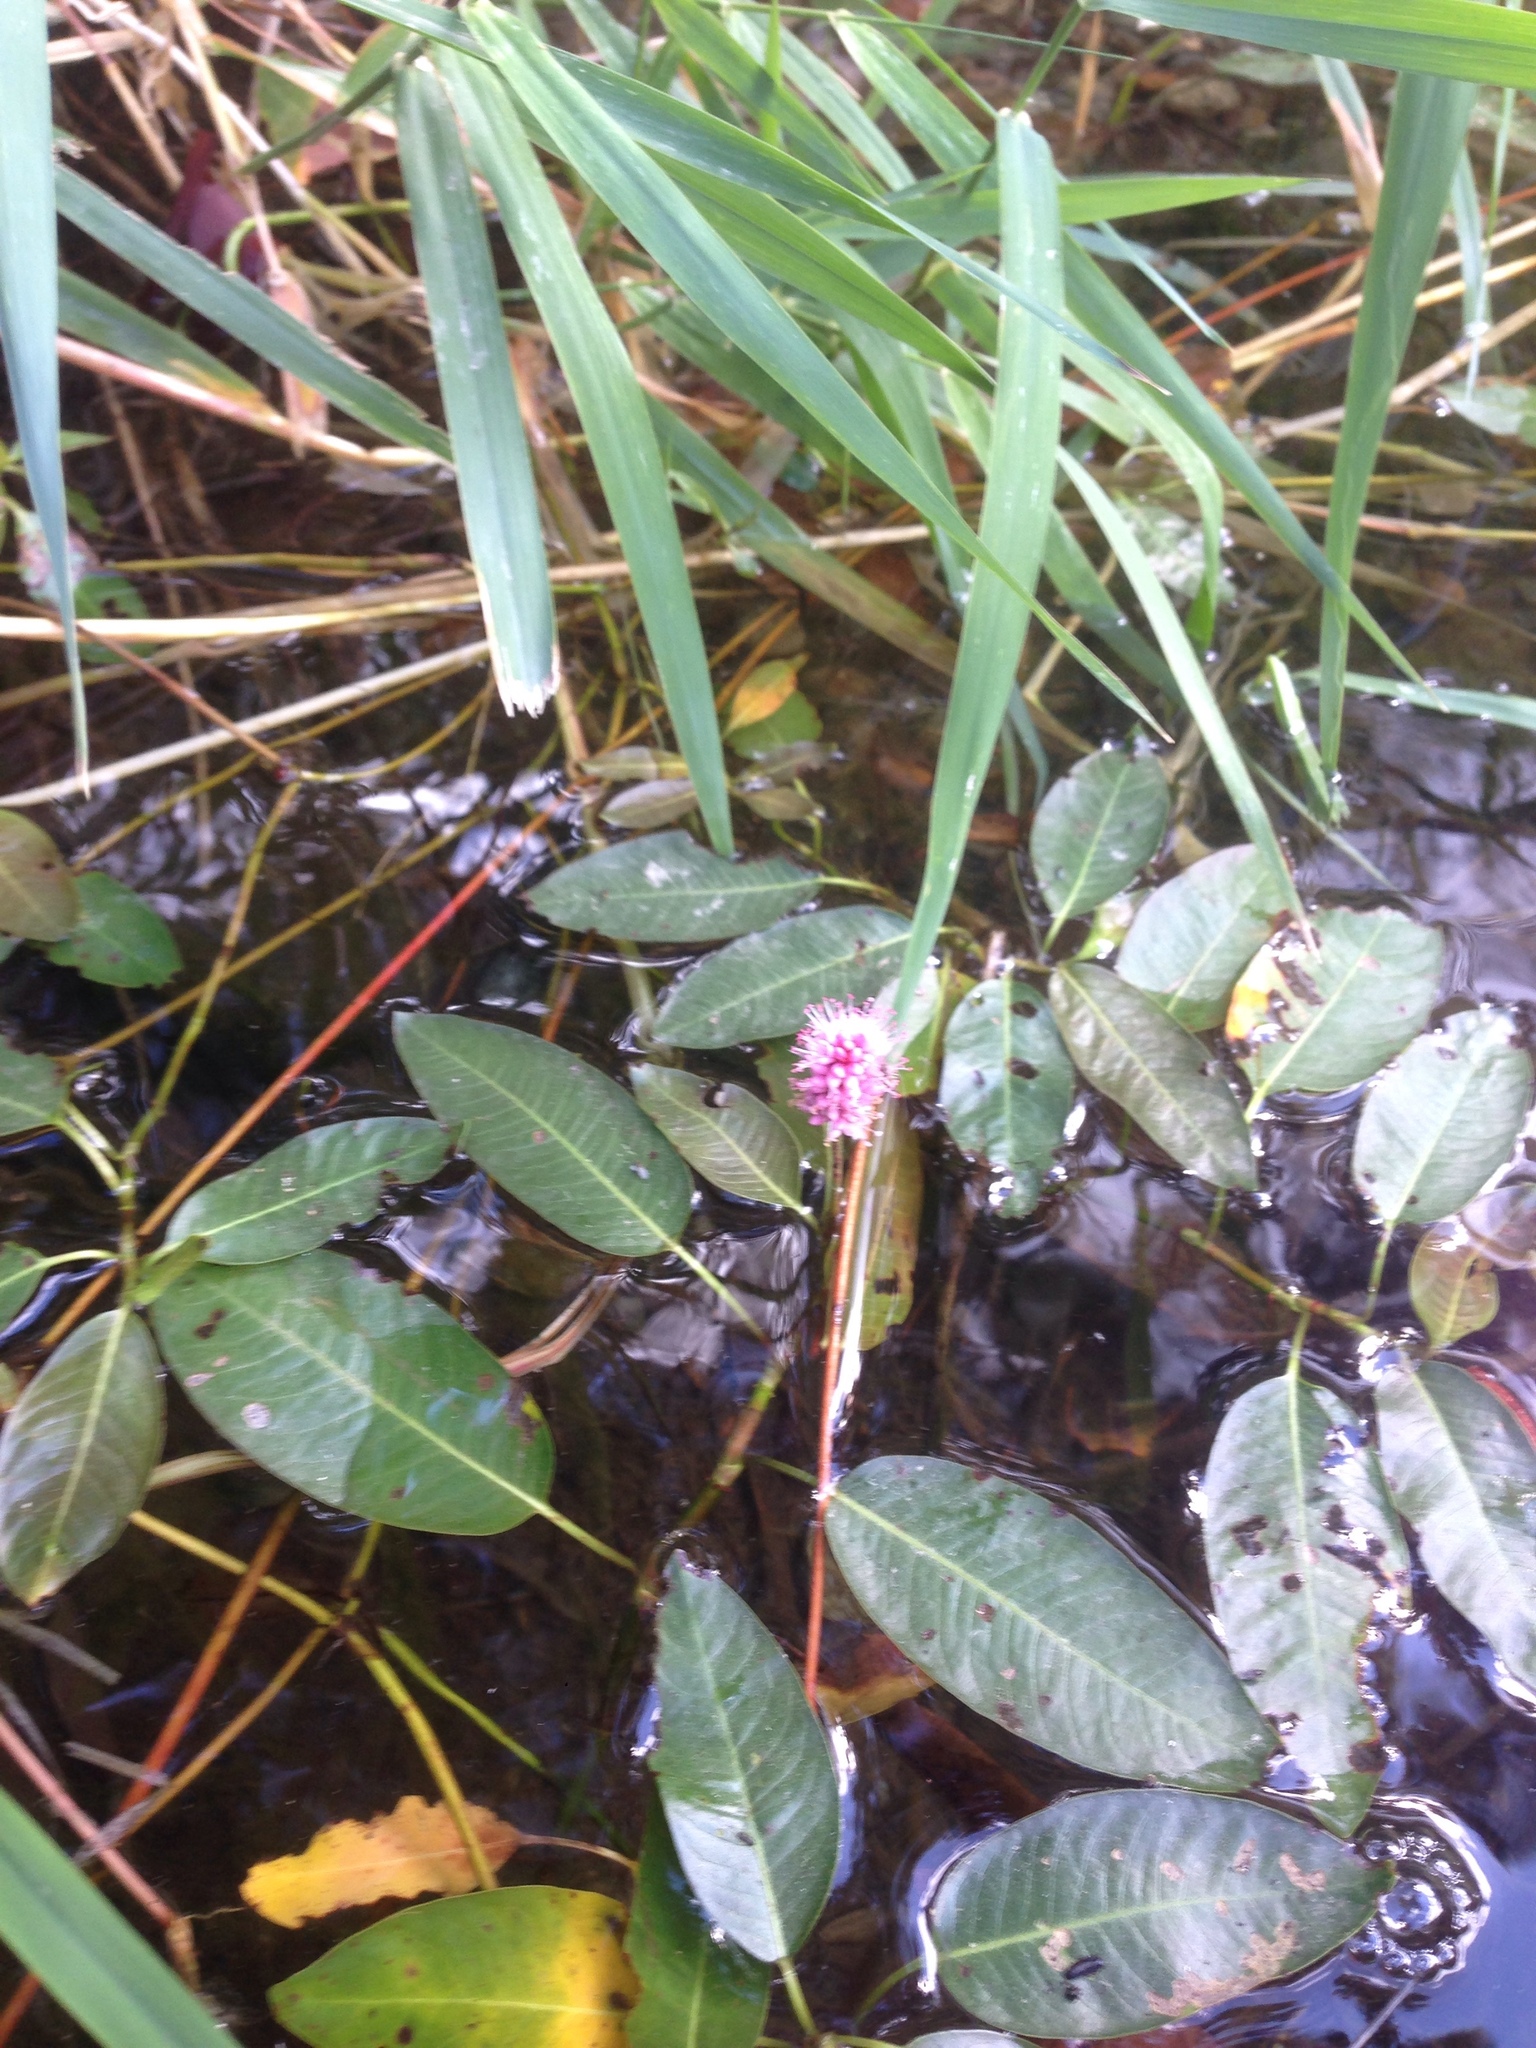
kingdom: Plantae
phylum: Tracheophyta
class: Magnoliopsida
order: Caryophyllales
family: Polygonaceae
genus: Persicaria
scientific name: Persicaria amphibia
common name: Amphibious bistort
